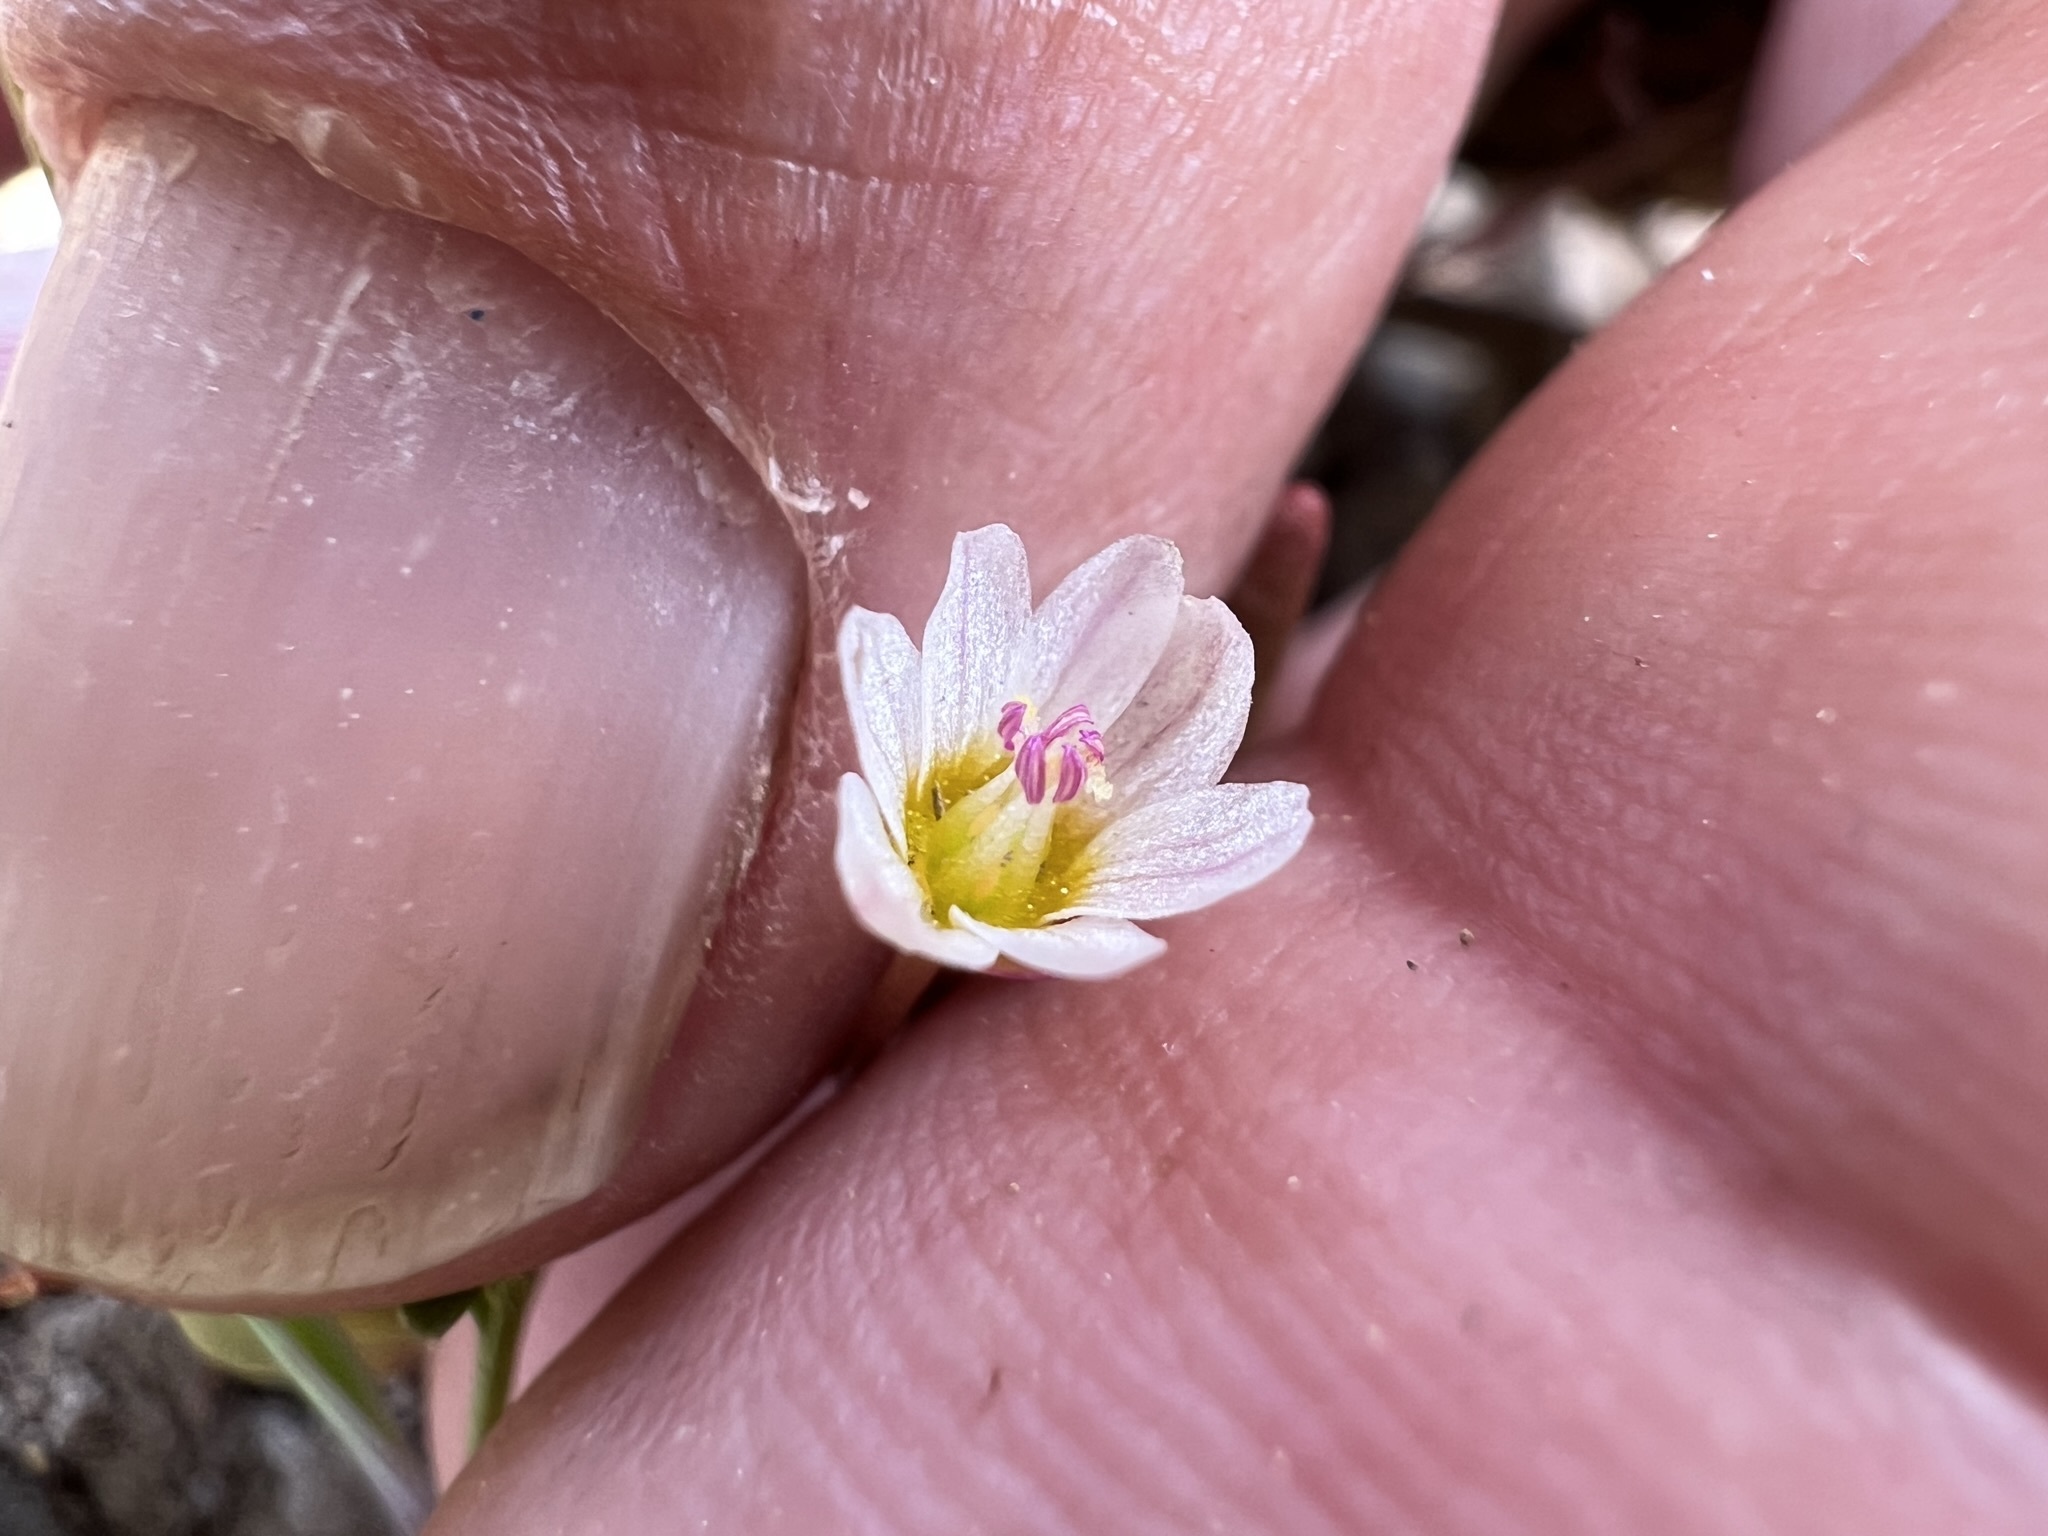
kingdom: Plantae
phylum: Tracheophyta
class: Magnoliopsida
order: Caryophyllales
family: Montiaceae
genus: Lewisia
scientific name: Lewisia triphylla
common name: Three-leaved bitterroot
